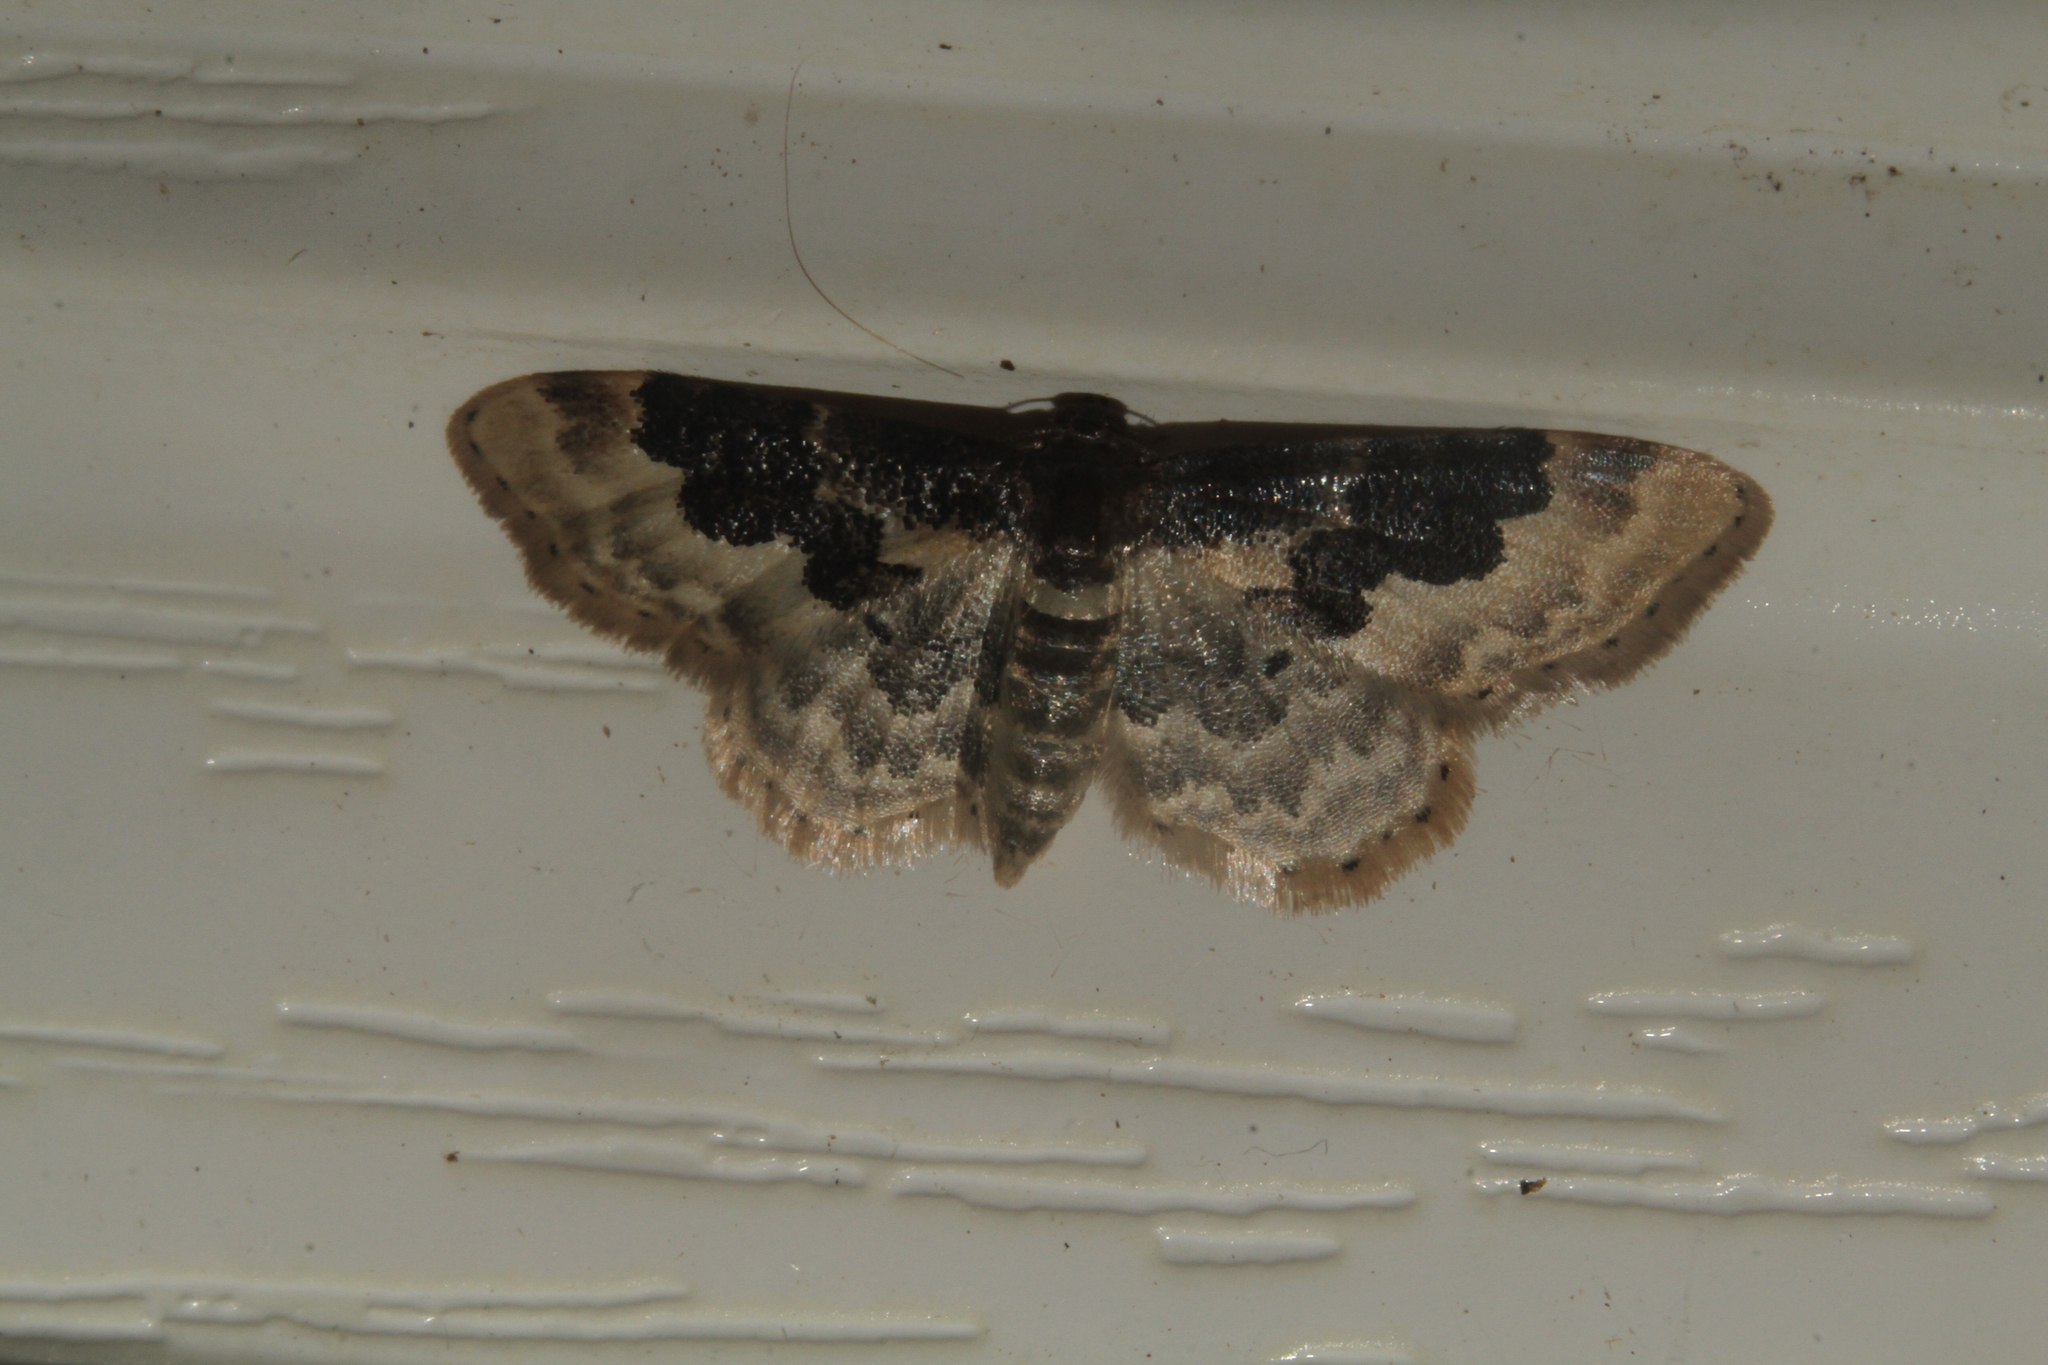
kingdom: Animalia
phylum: Arthropoda
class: Insecta
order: Lepidoptera
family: Geometridae
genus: Idaea
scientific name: Idaea rusticata
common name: Least carpet
